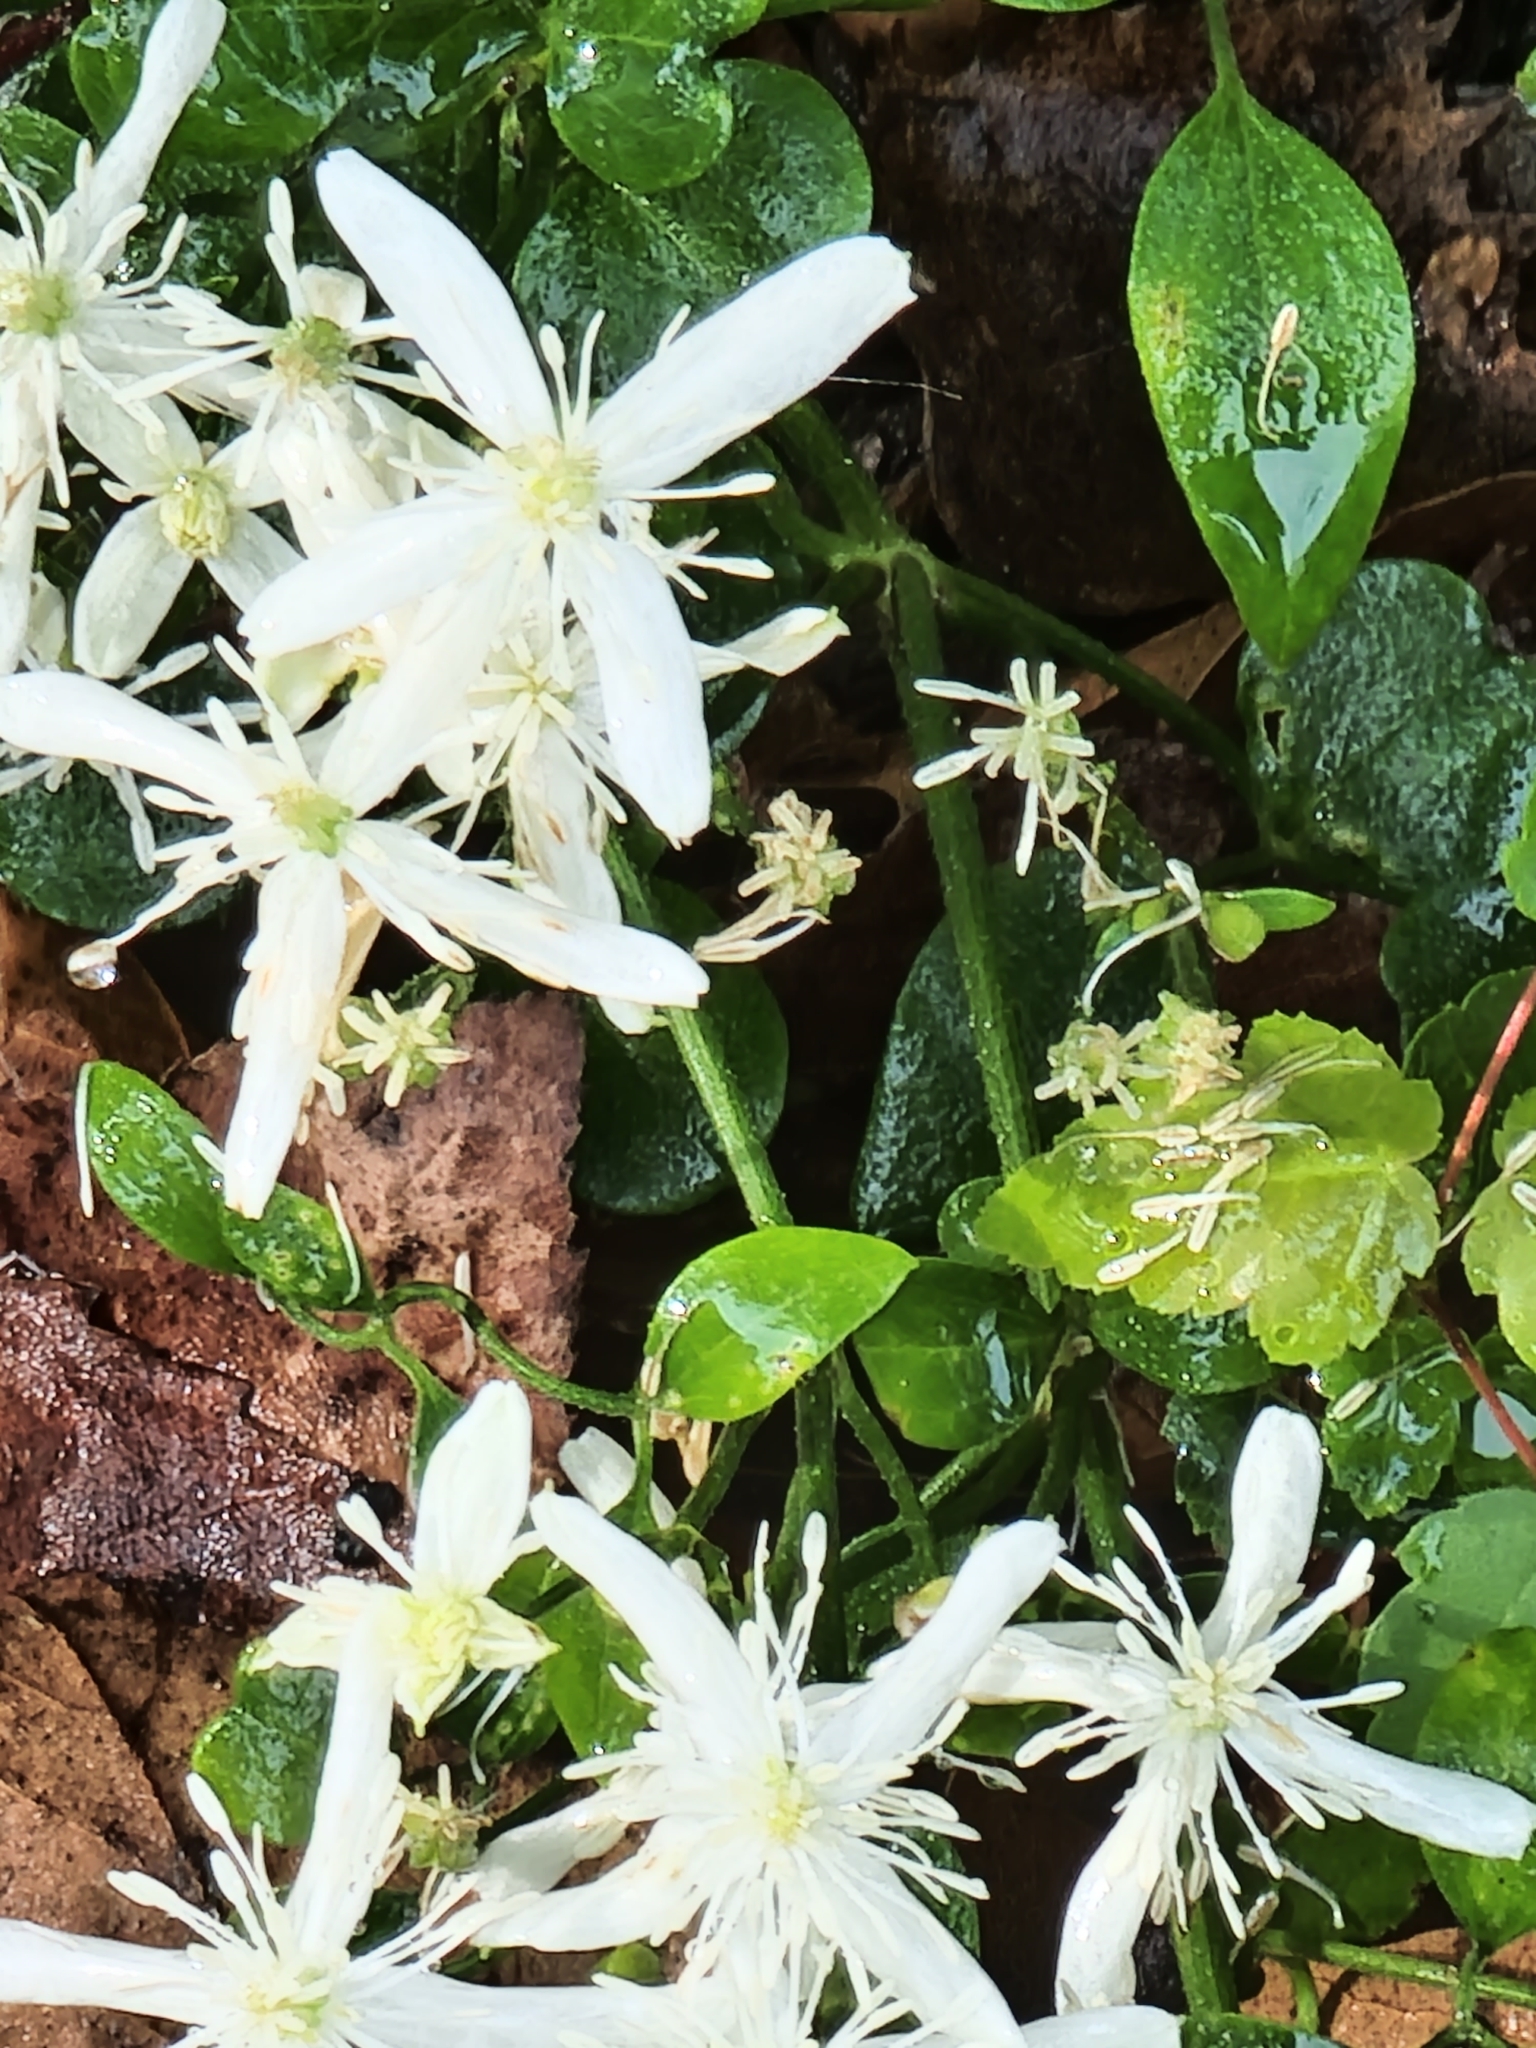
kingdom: Plantae
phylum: Tracheophyta
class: Magnoliopsida
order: Ranunculales
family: Ranunculaceae
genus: Clematis
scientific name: Clematis terniflora
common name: Sweet autumn clematis
